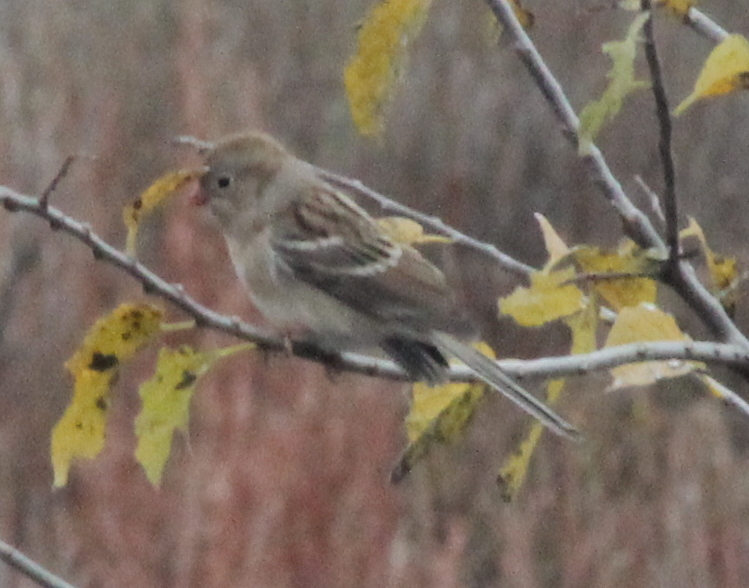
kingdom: Animalia
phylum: Chordata
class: Aves
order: Passeriformes
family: Passerellidae
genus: Spizella
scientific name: Spizella pusilla
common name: Field sparrow
